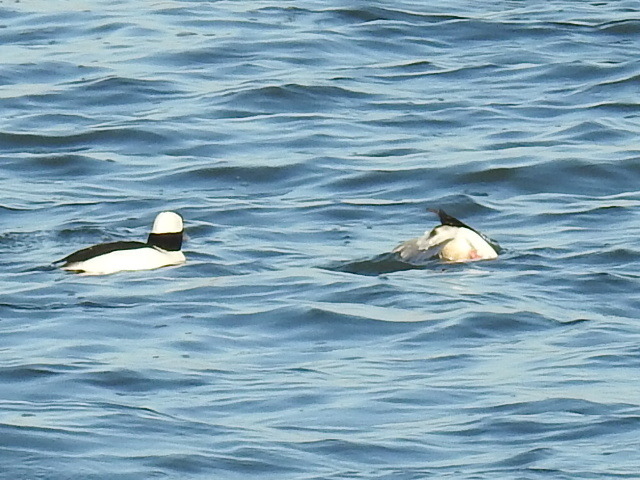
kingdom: Animalia
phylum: Chordata
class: Aves
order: Anseriformes
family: Anatidae
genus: Bucephala
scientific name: Bucephala albeola
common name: Bufflehead
